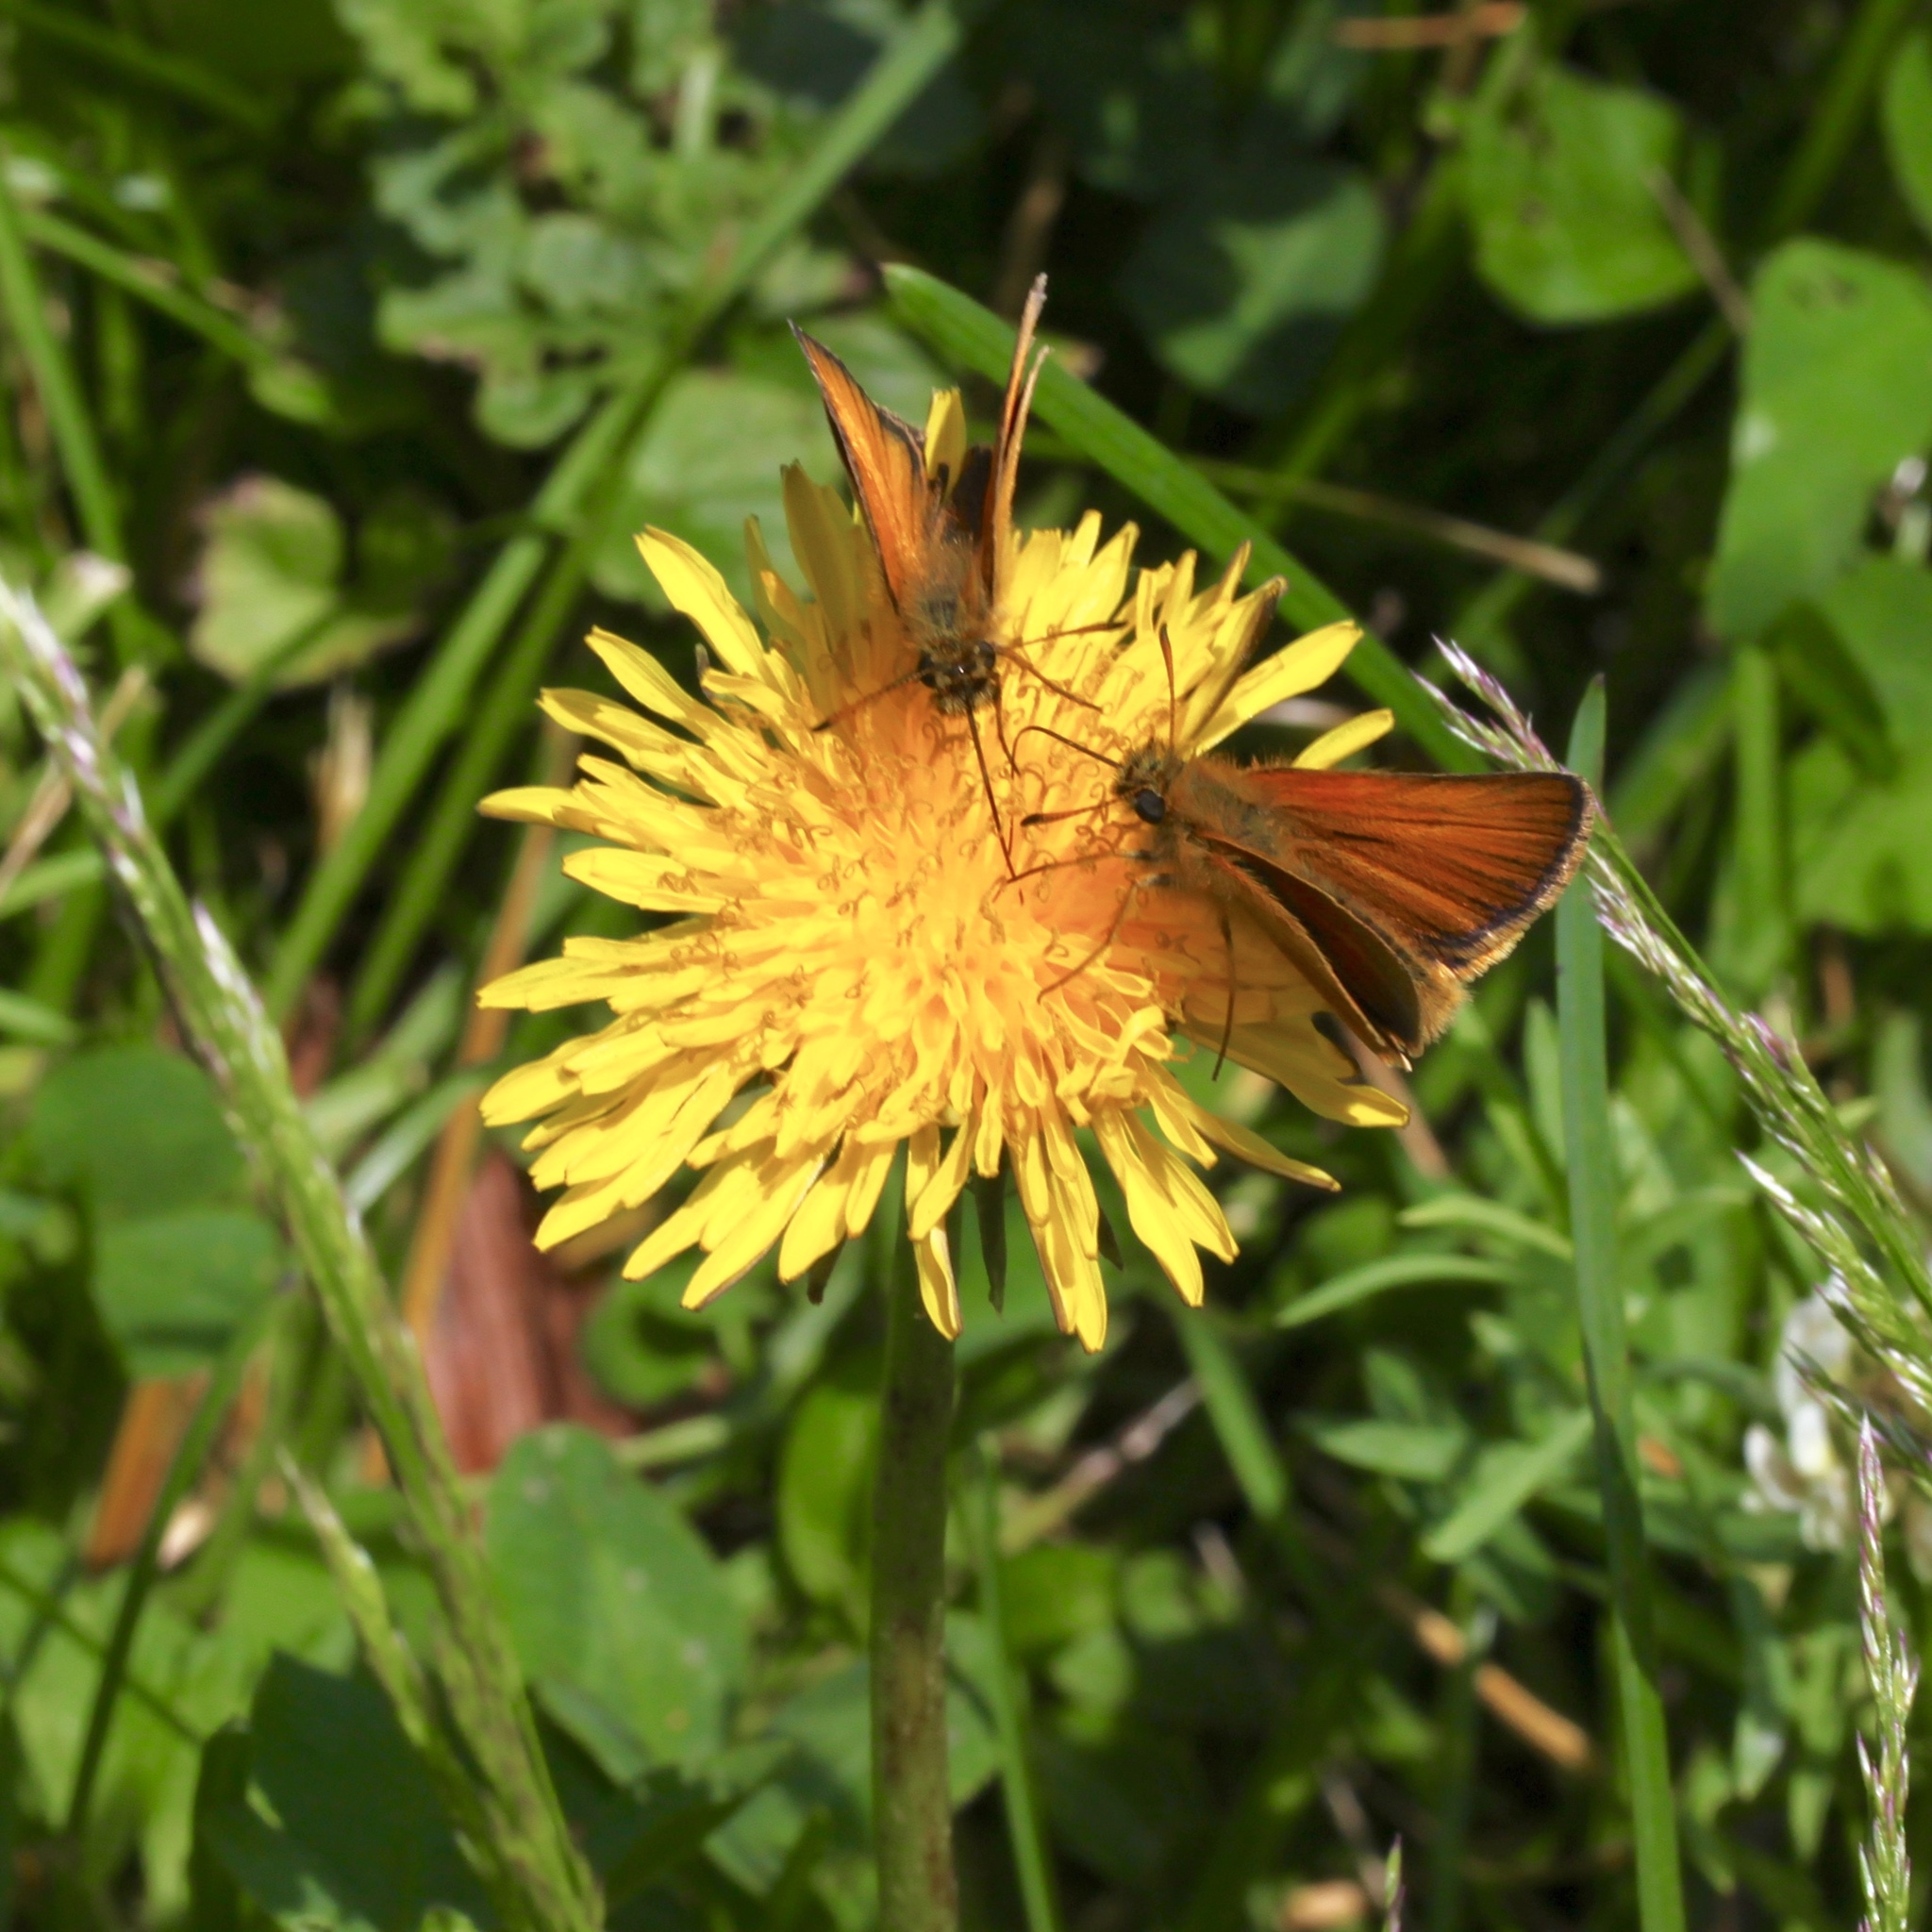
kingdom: Animalia
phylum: Arthropoda
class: Insecta
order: Lepidoptera
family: Hesperiidae
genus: Thymelicus
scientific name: Thymelicus lineola
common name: Essex skipper
